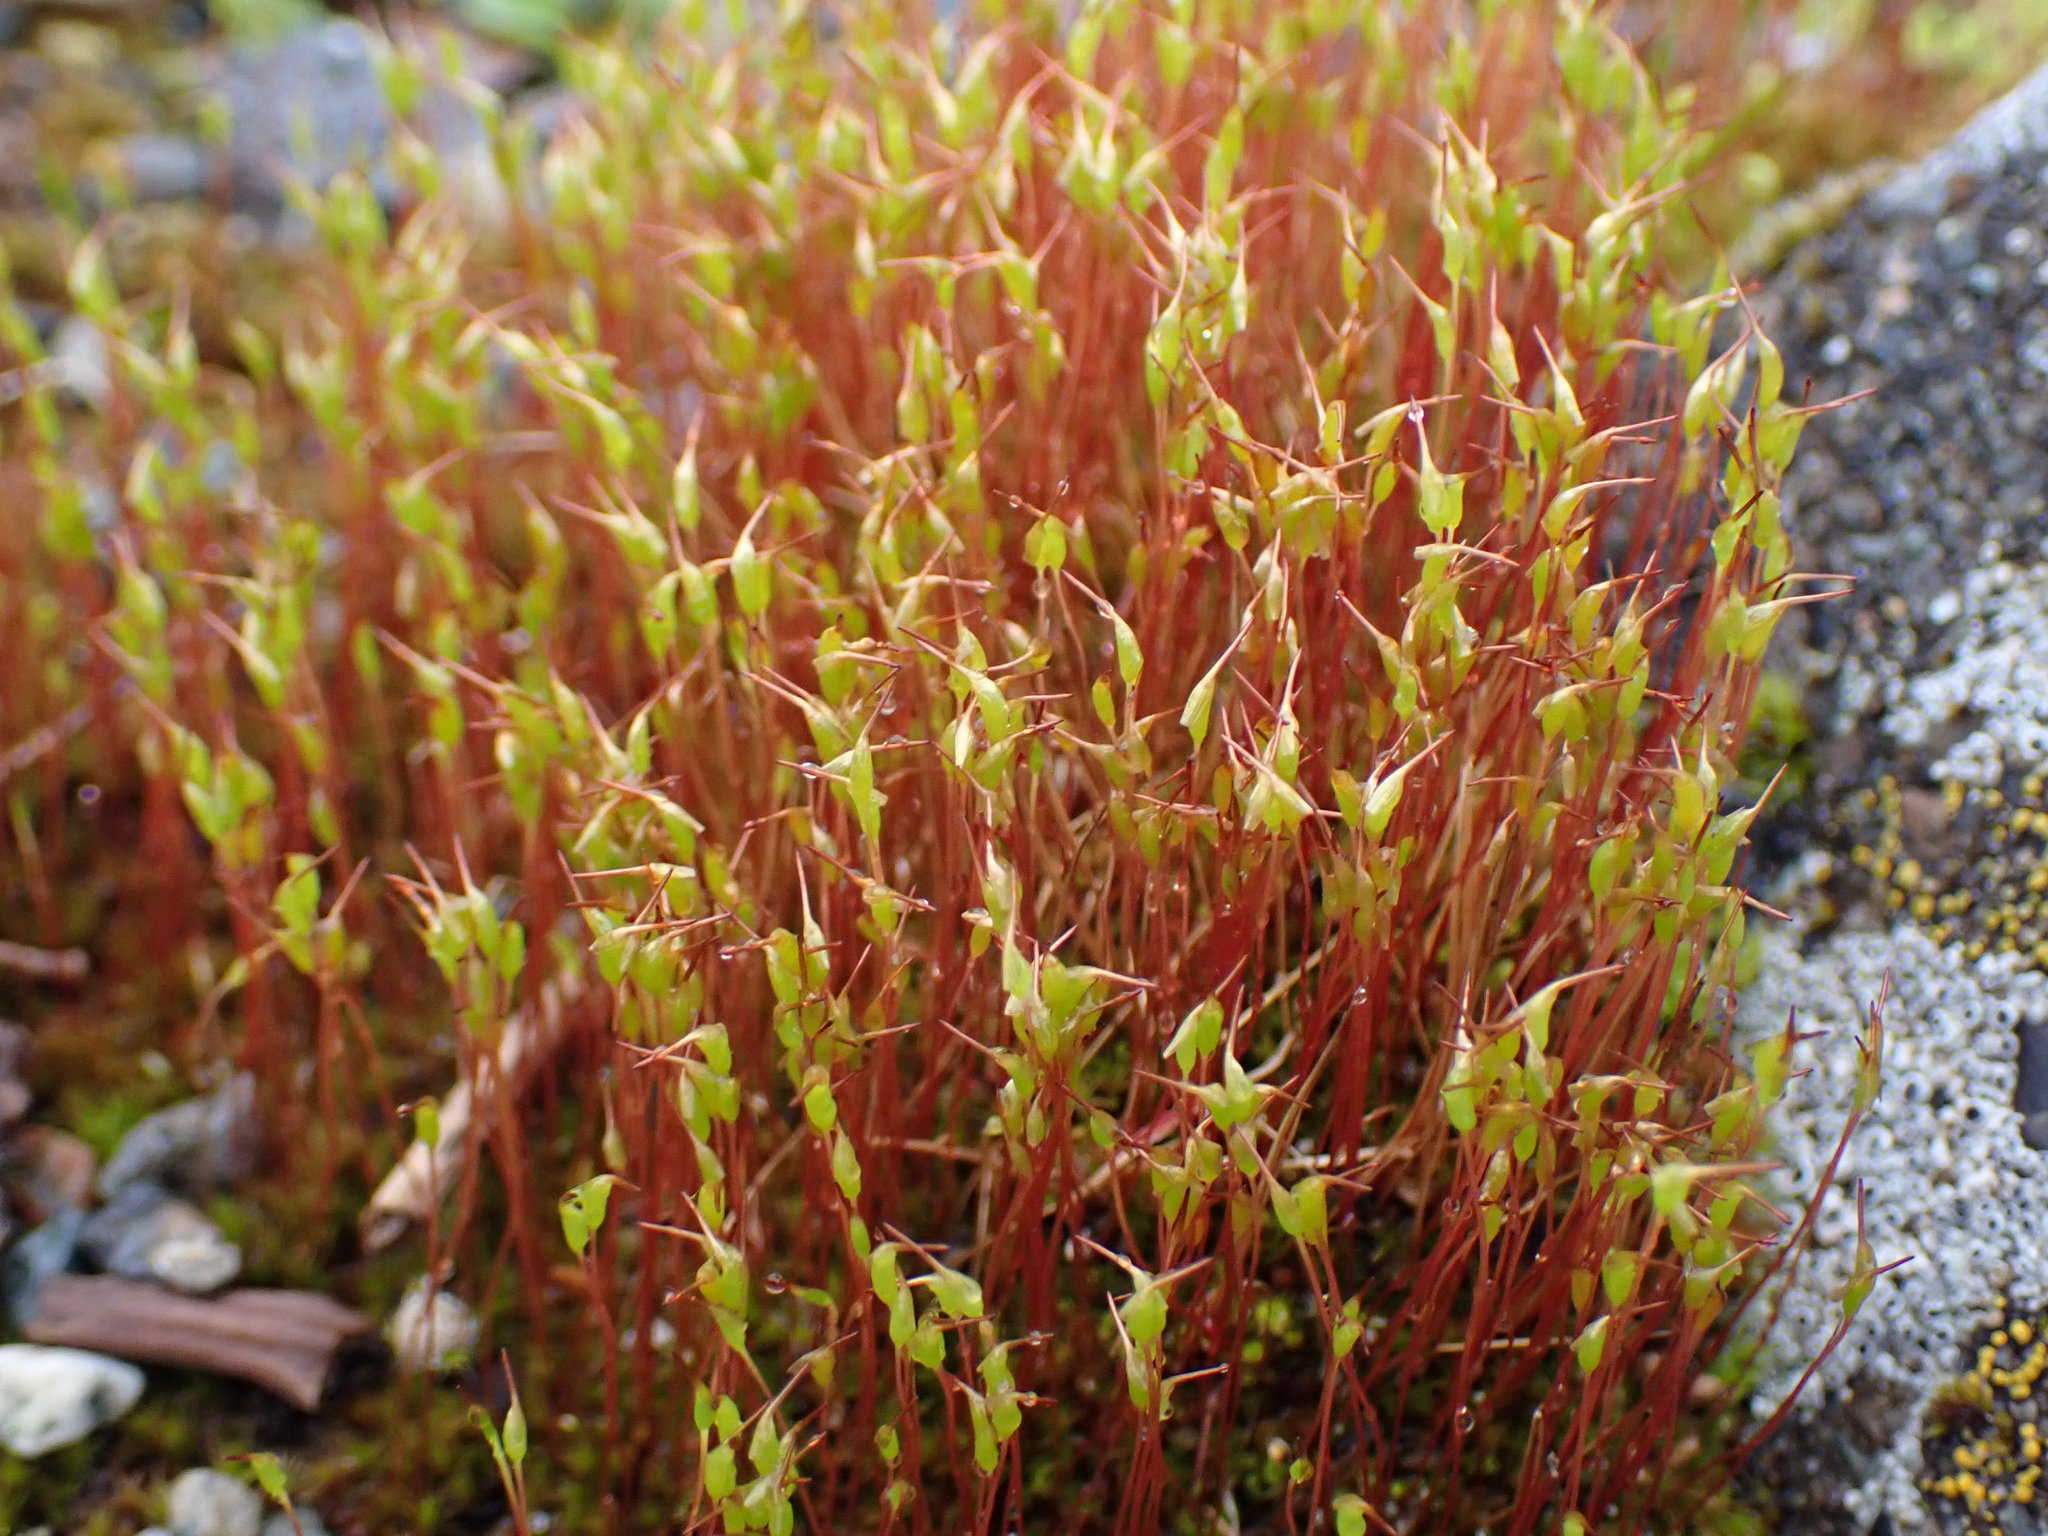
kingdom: Plantae
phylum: Bryophyta
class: Bryopsida
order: Dicranales
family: Ditrichaceae
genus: Ceratodon
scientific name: Ceratodon purpureus
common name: Redshank
